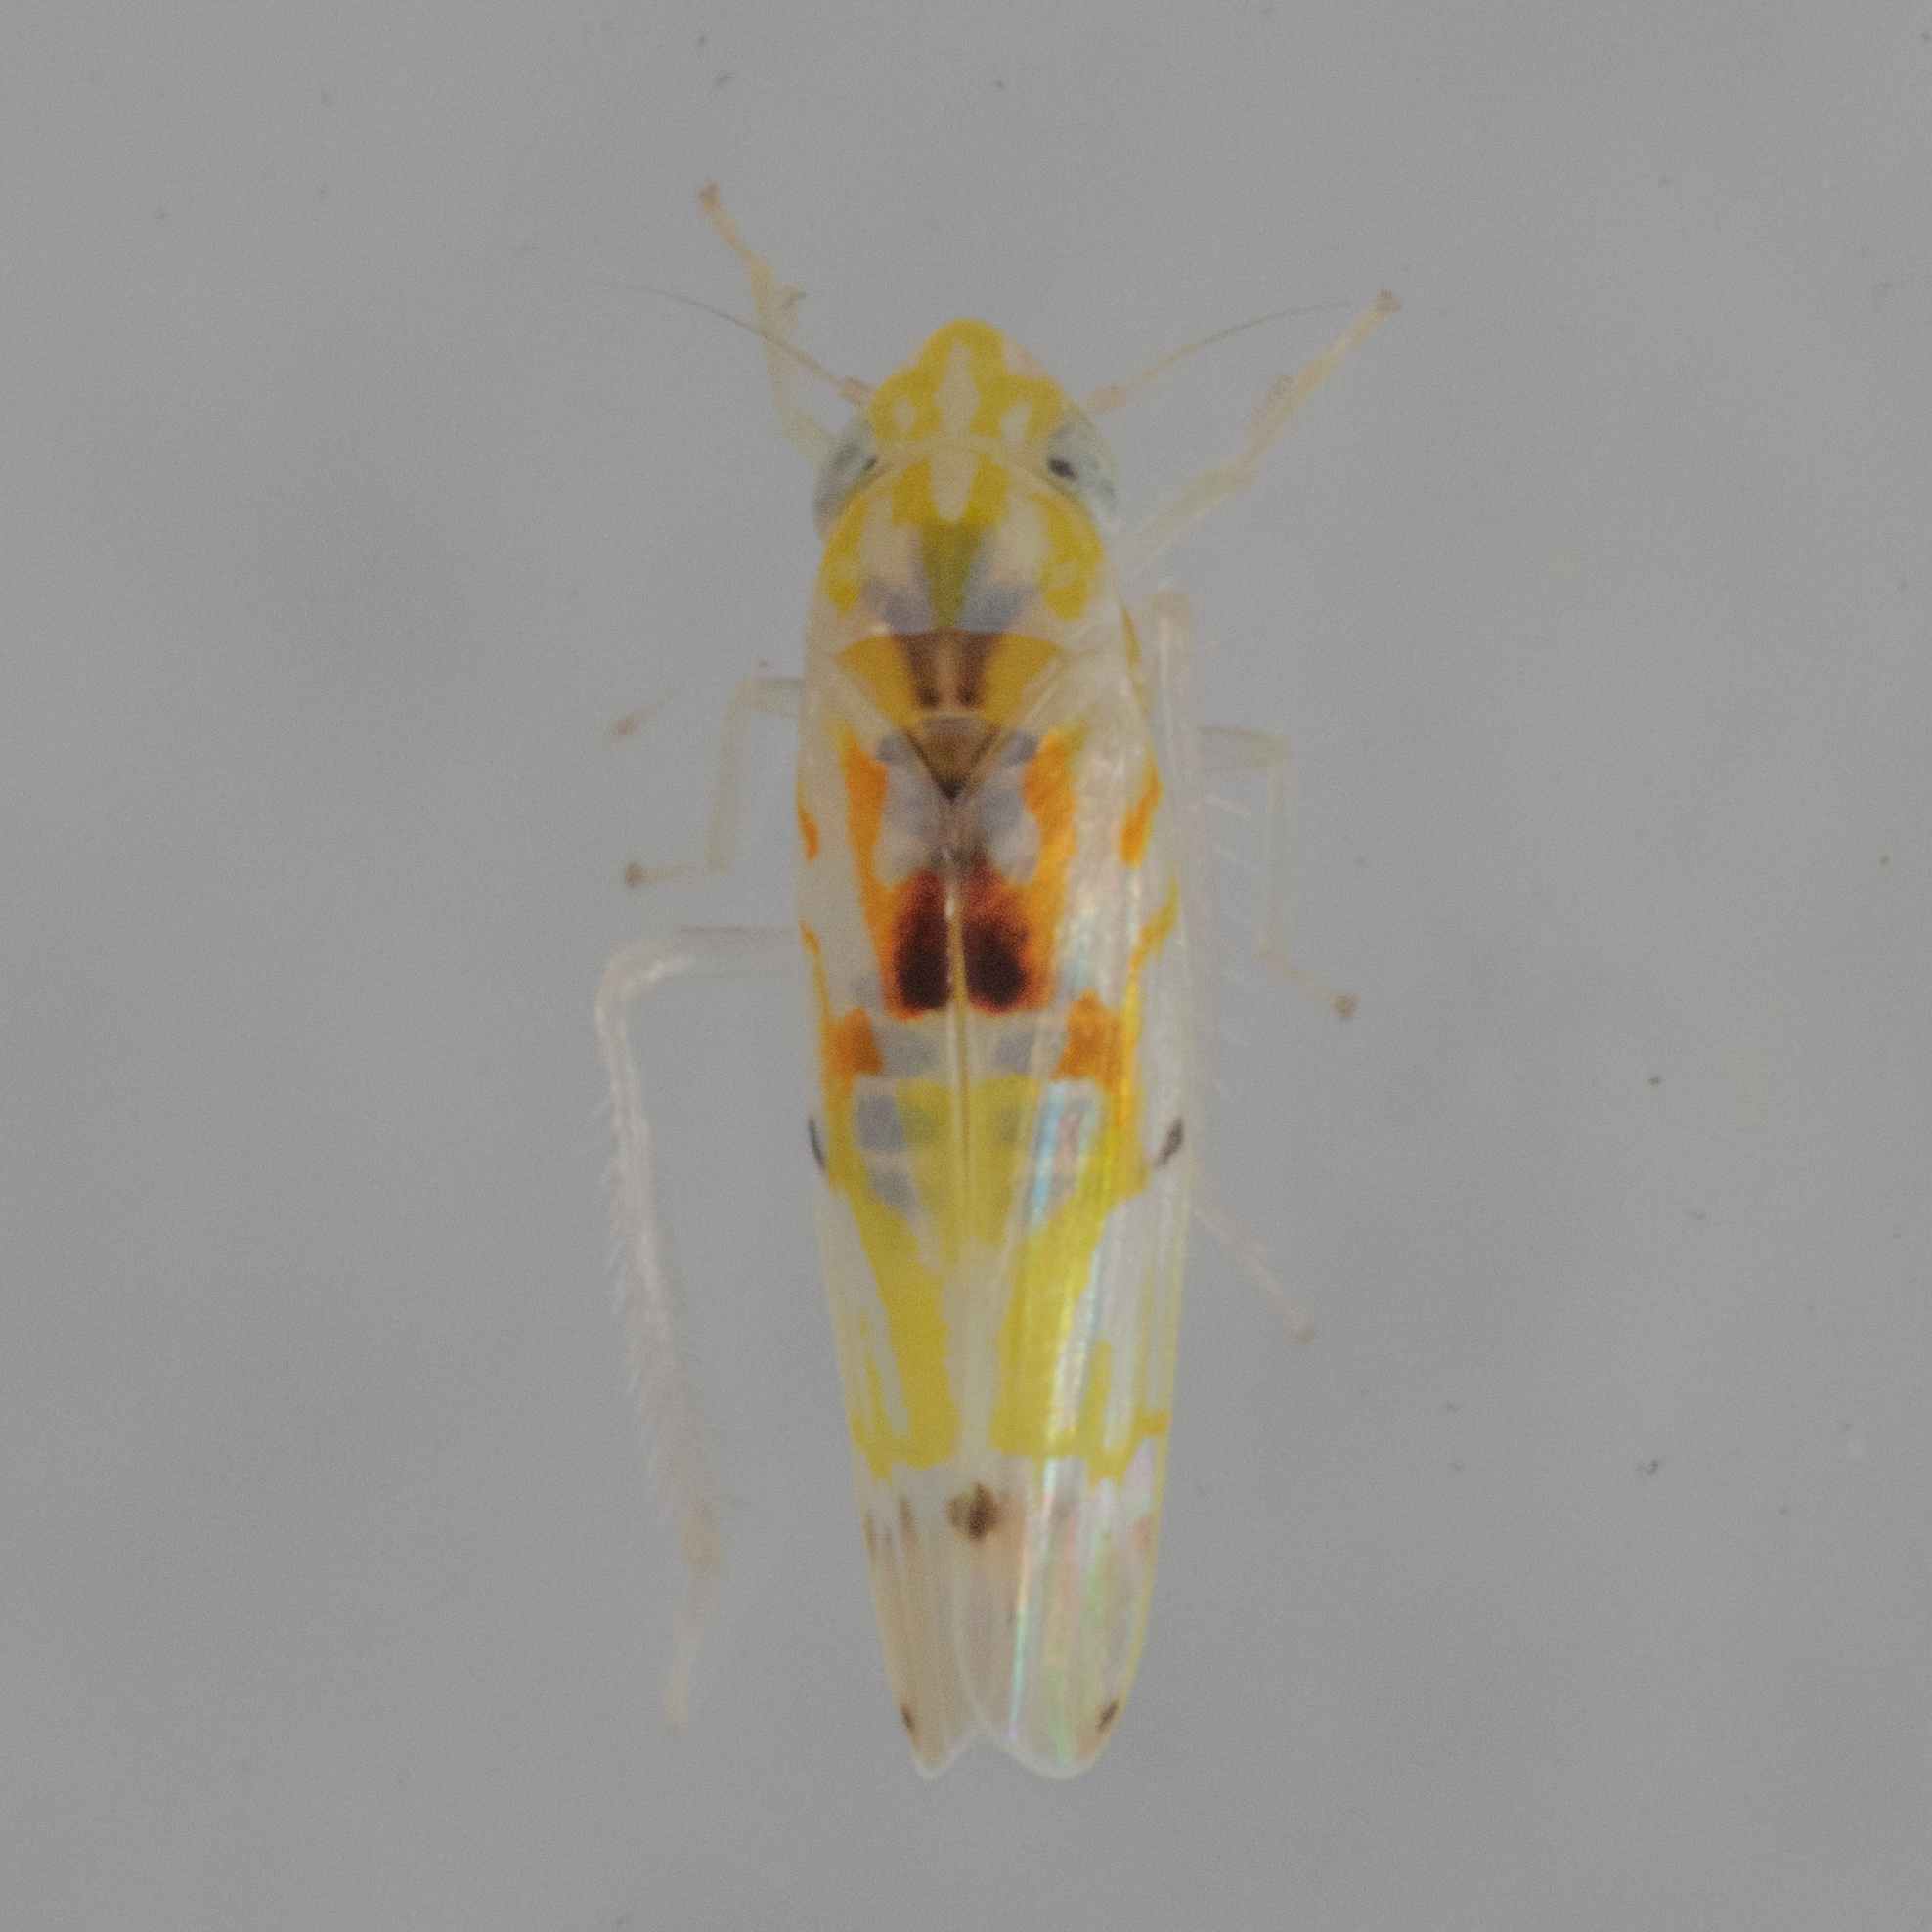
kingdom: Animalia
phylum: Arthropoda
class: Insecta
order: Hemiptera
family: Cicadellidae
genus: Erythroneura
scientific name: Erythroneura octonotata
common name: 8-spotted leafhopper
